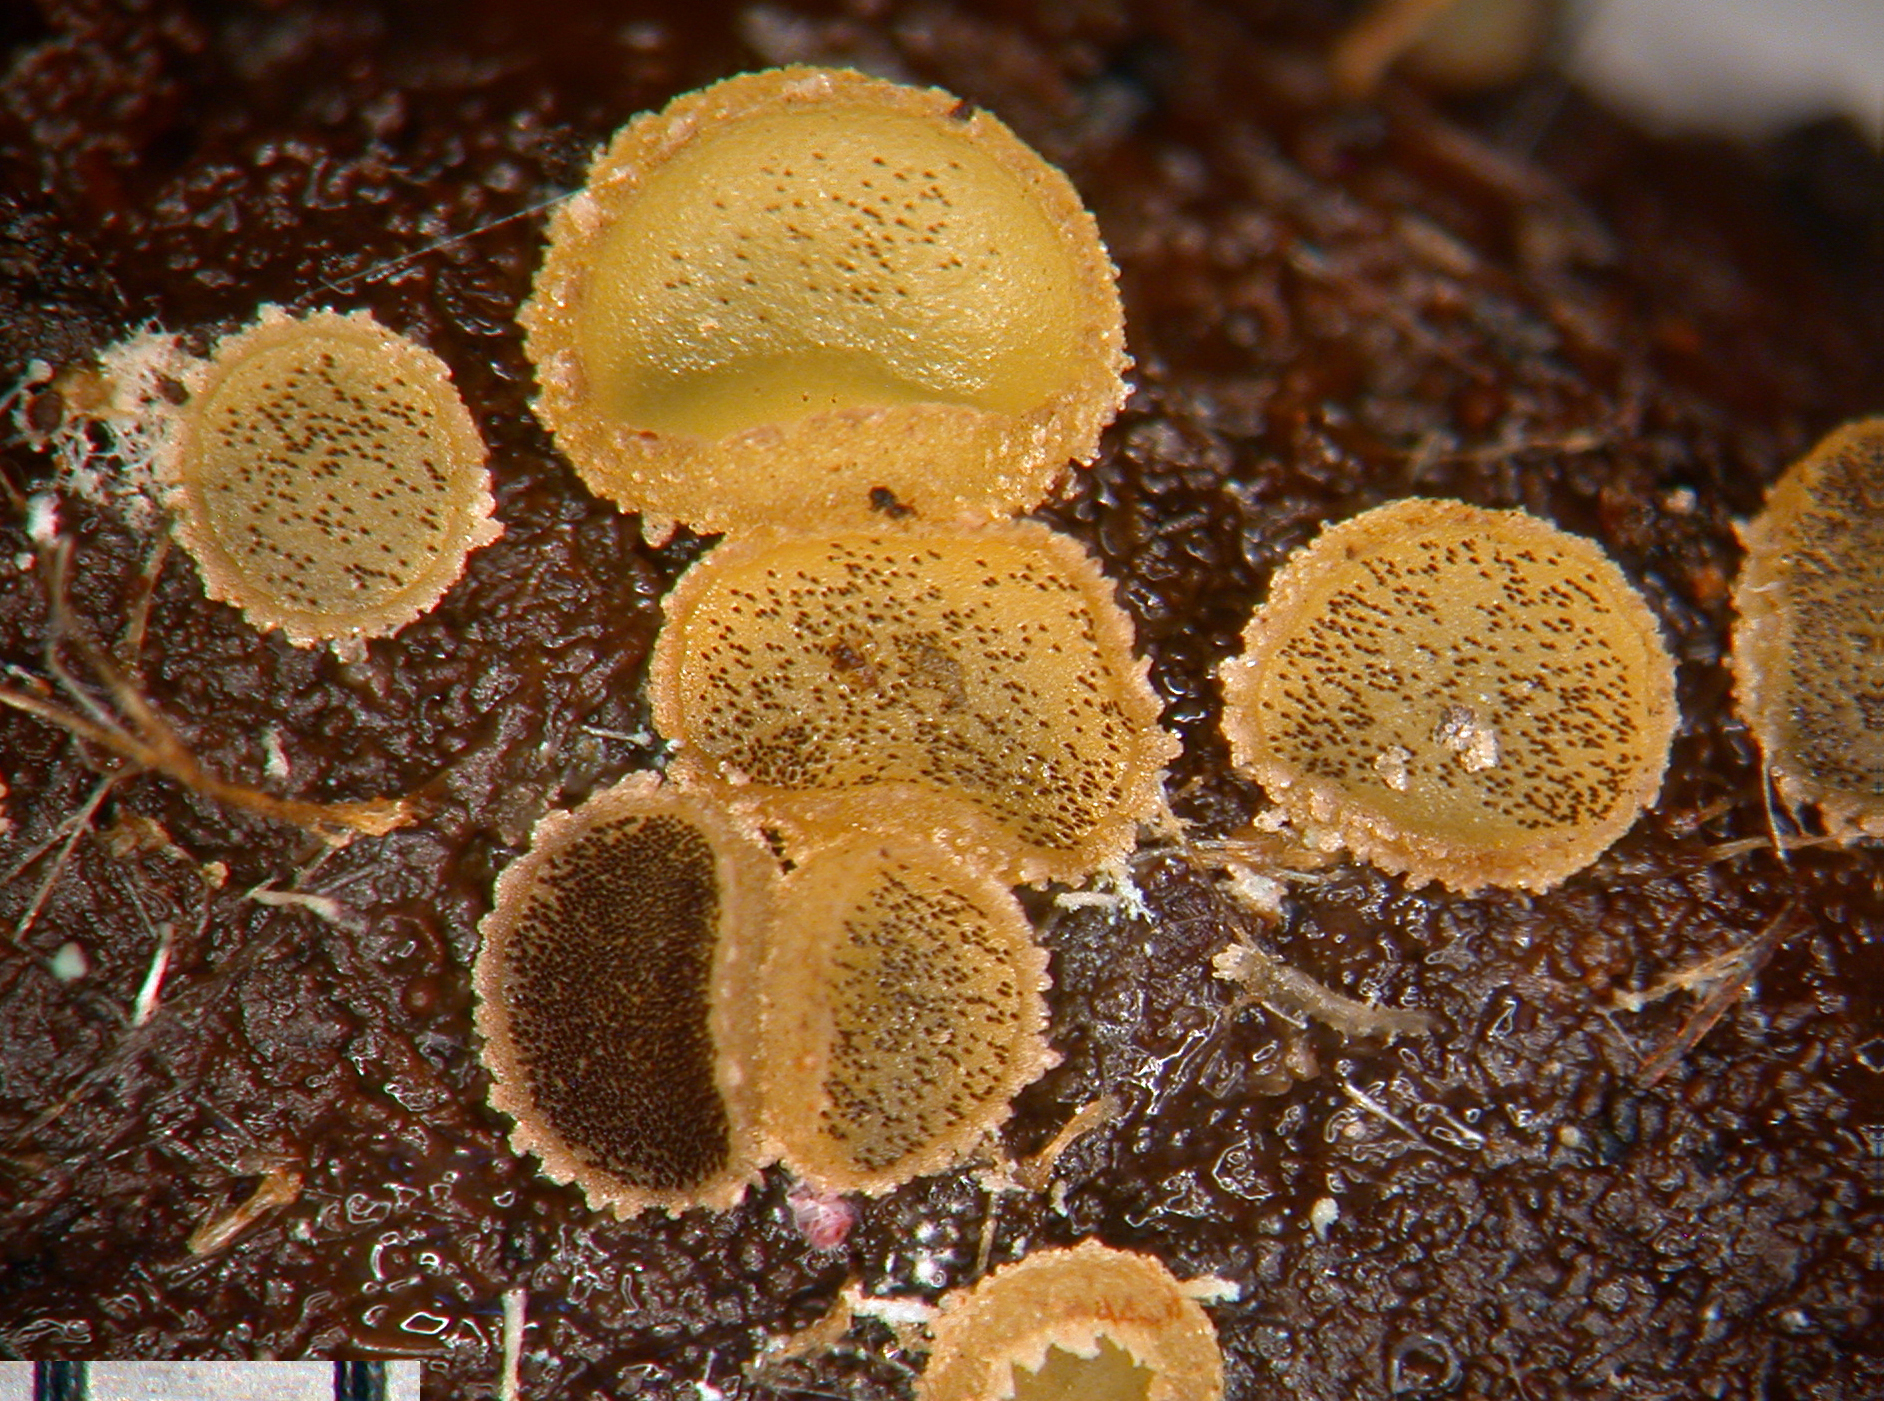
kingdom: Fungi
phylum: Ascomycota
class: Pezizomycetes
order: Pezizales
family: Ascobolaceae
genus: Ascobolus
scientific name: Ascobolus crenulatus
